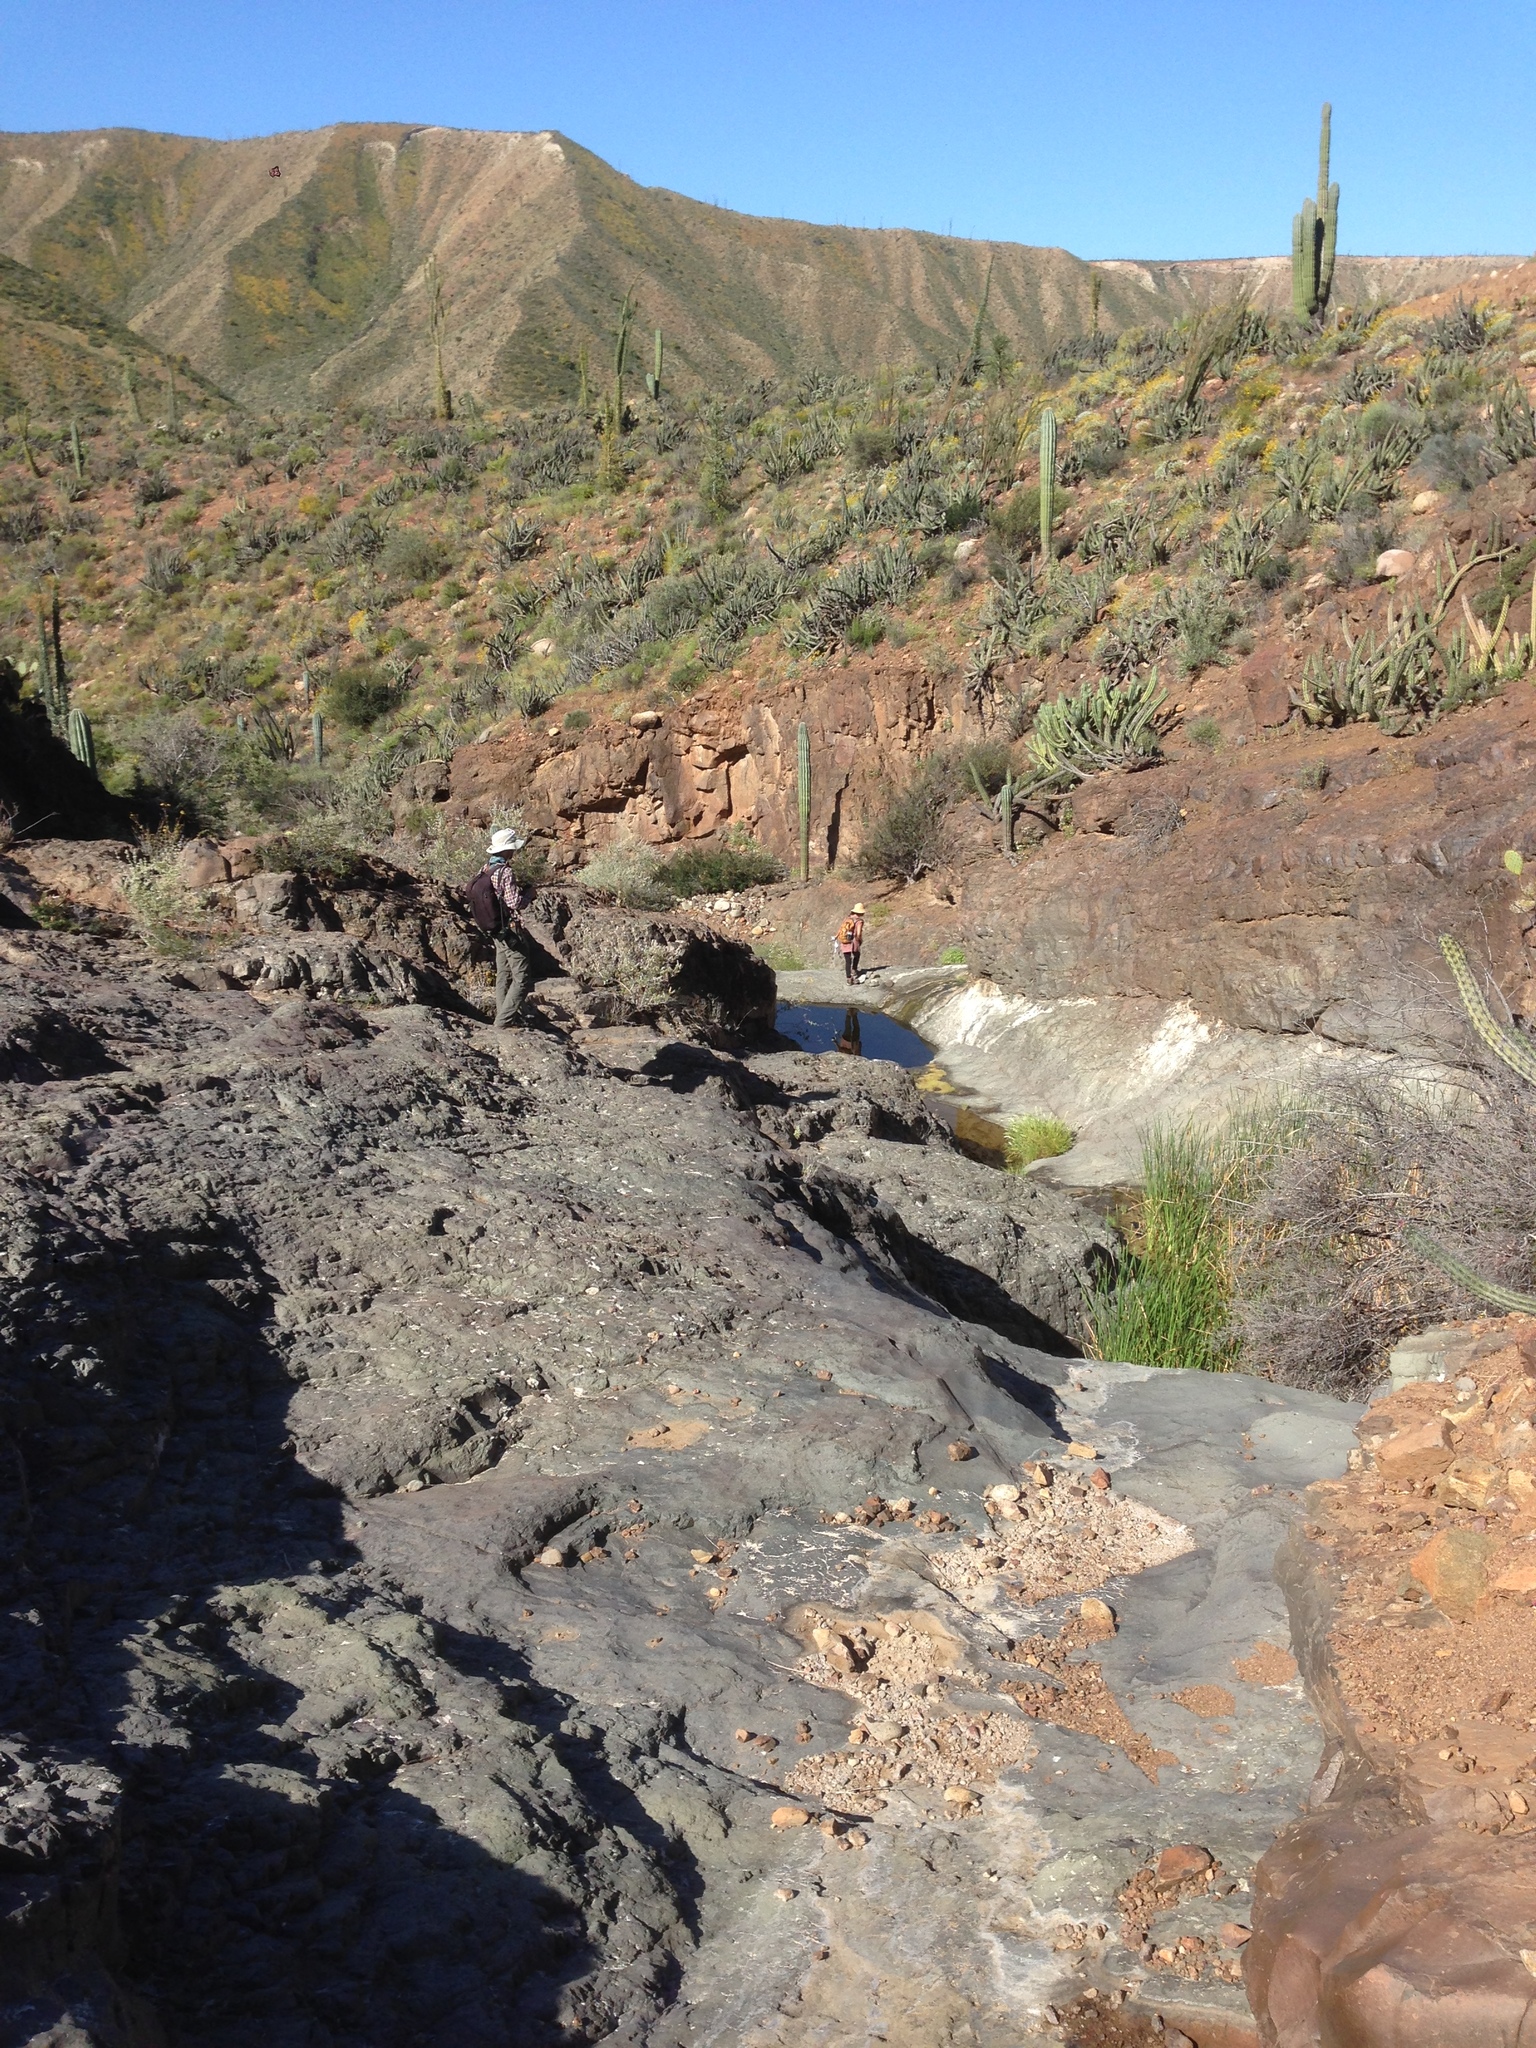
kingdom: Plantae
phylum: Tracheophyta
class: Magnoliopsida
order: Caryophyllales
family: Cactaceae
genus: Pachycereus
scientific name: Pachycereus pringlei
